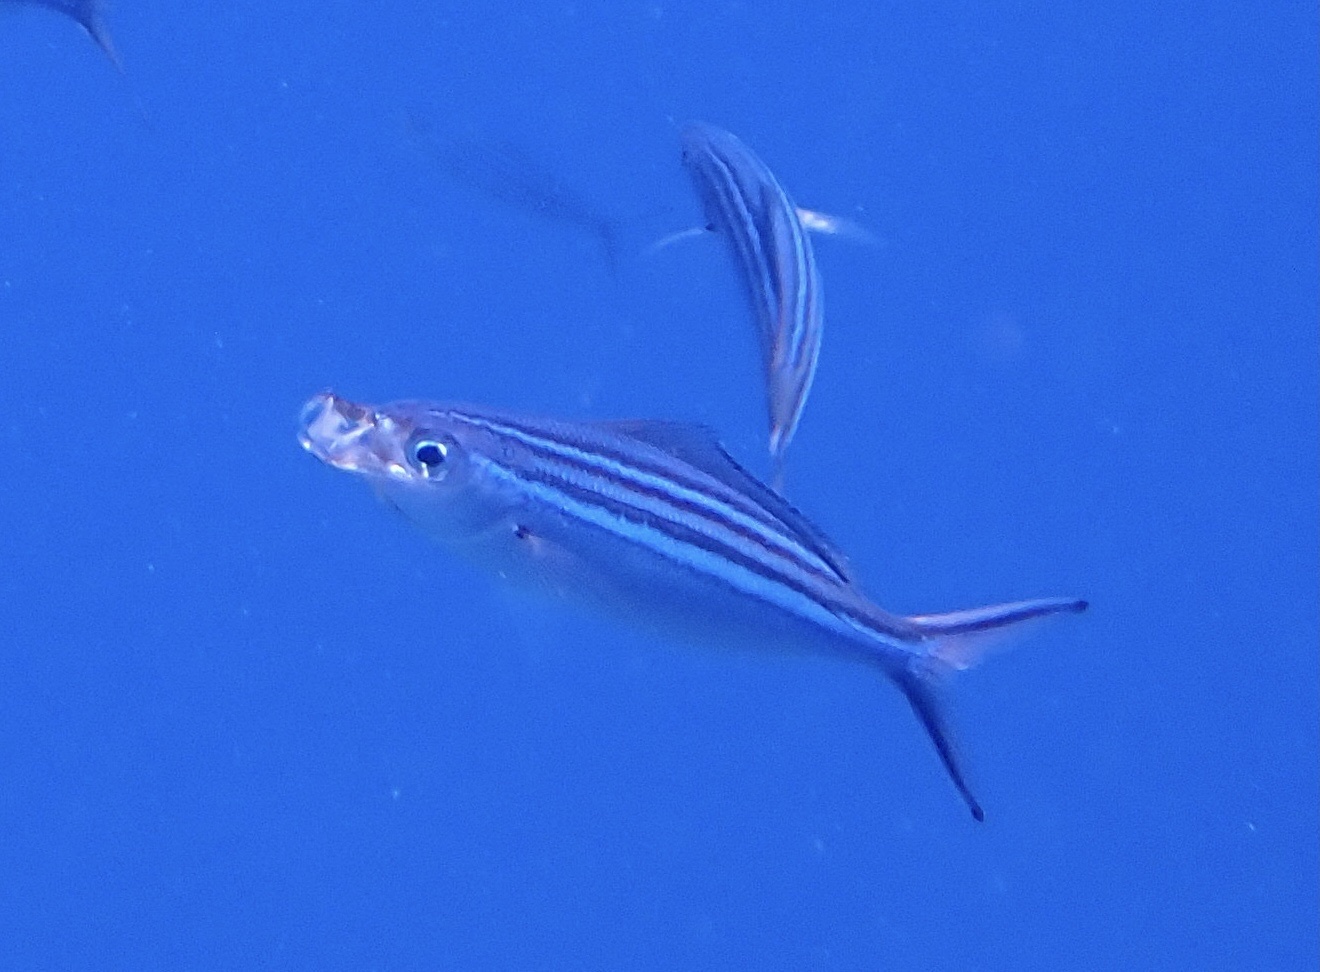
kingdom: Animalia
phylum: Chordata
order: Perciformes
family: Caesionidae
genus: Caesio
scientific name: Caesio striata
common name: Striated fusilier
